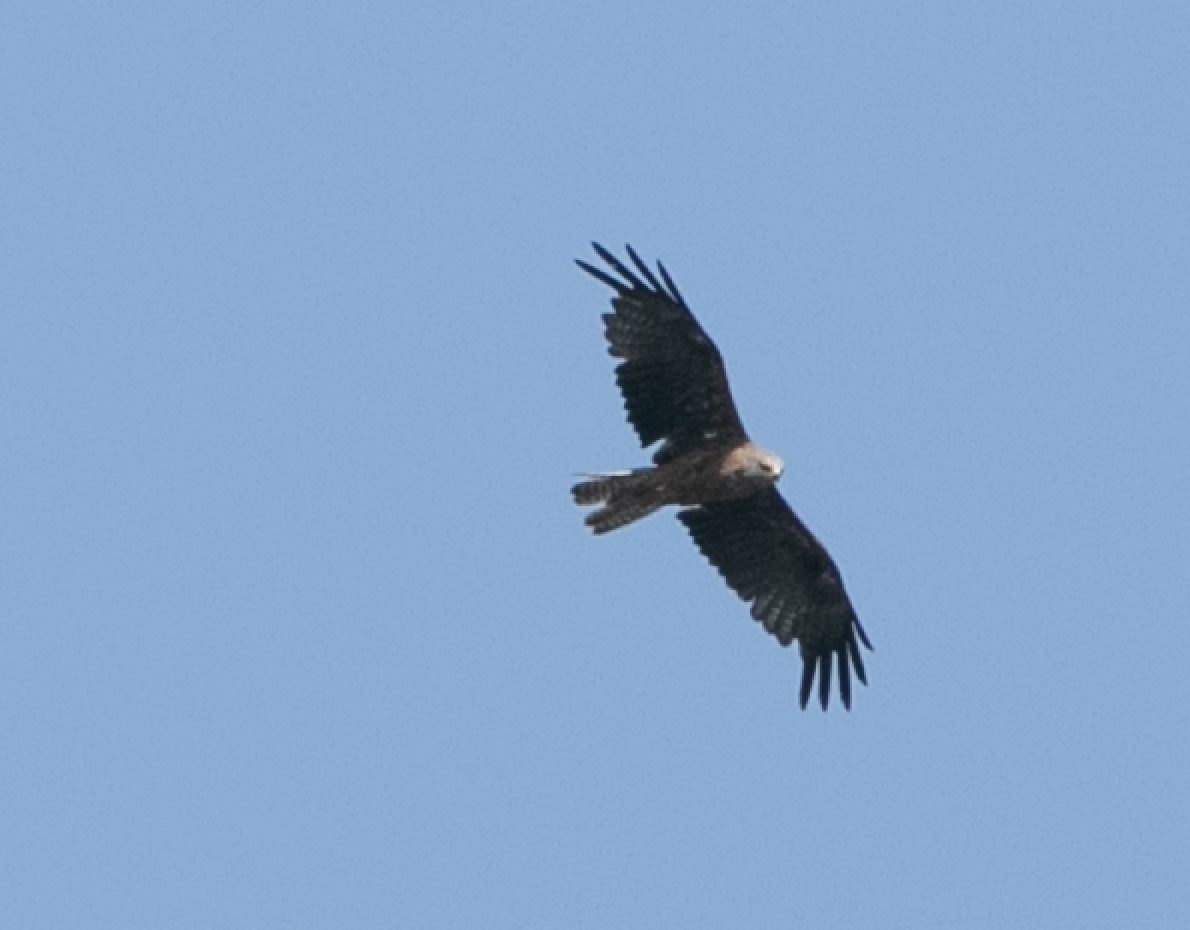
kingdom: Animalia
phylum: Chordata
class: Aves
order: Accipitriformes
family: Accipitridae
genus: Milvus
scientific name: Milvus migrans
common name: Black kite
